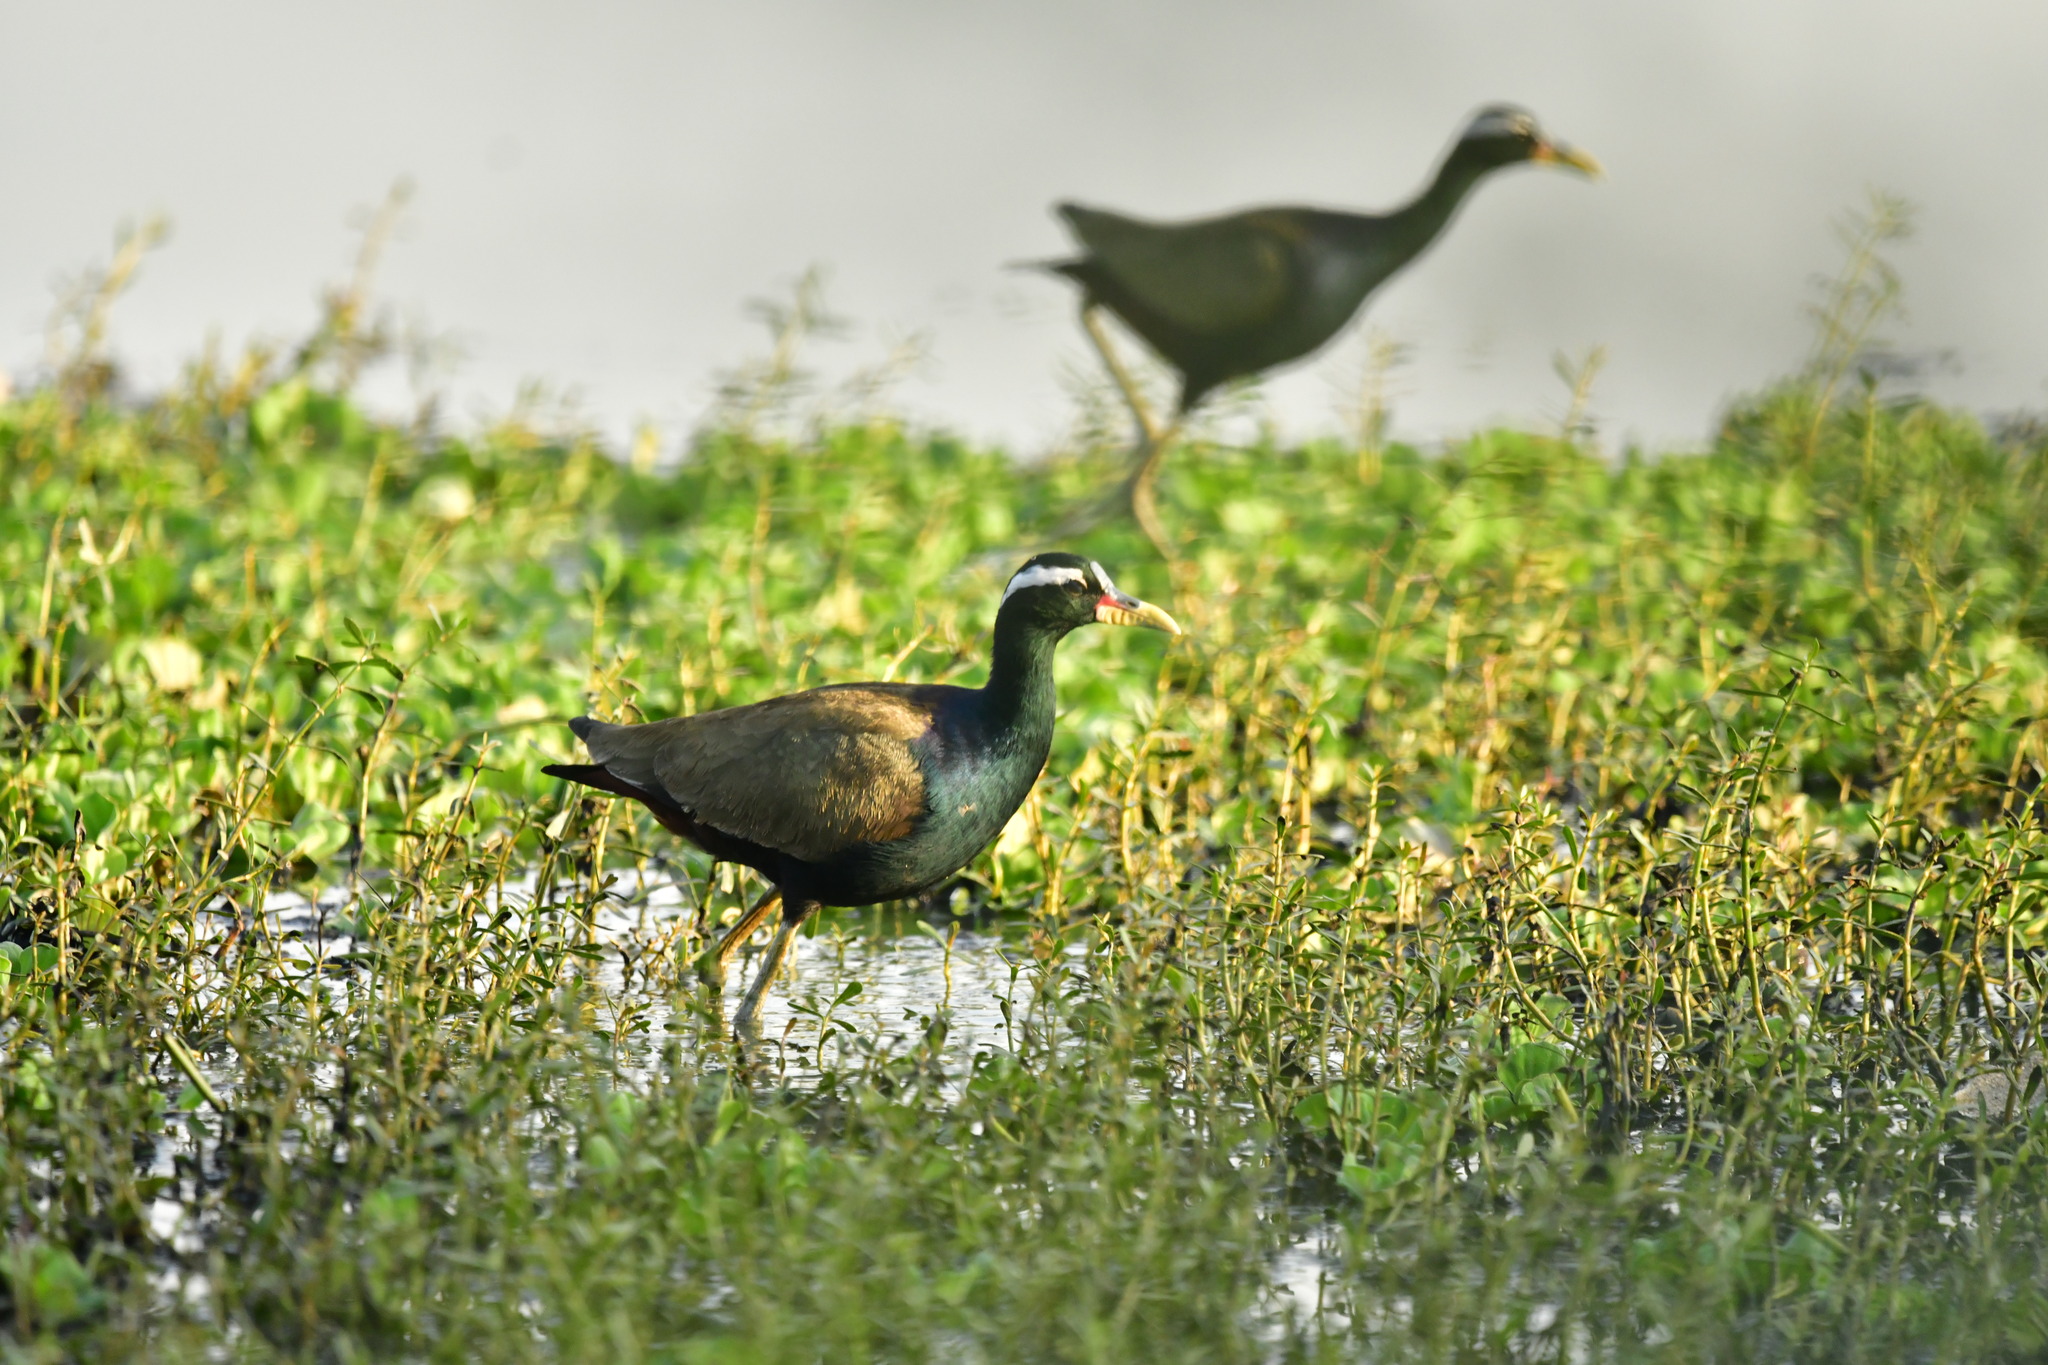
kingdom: Animalia
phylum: Chordata
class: Aves
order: Charadriiformes
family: Jacanidae
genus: Metopidius
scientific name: Metopidius indicus
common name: Bronze-winged jacana
